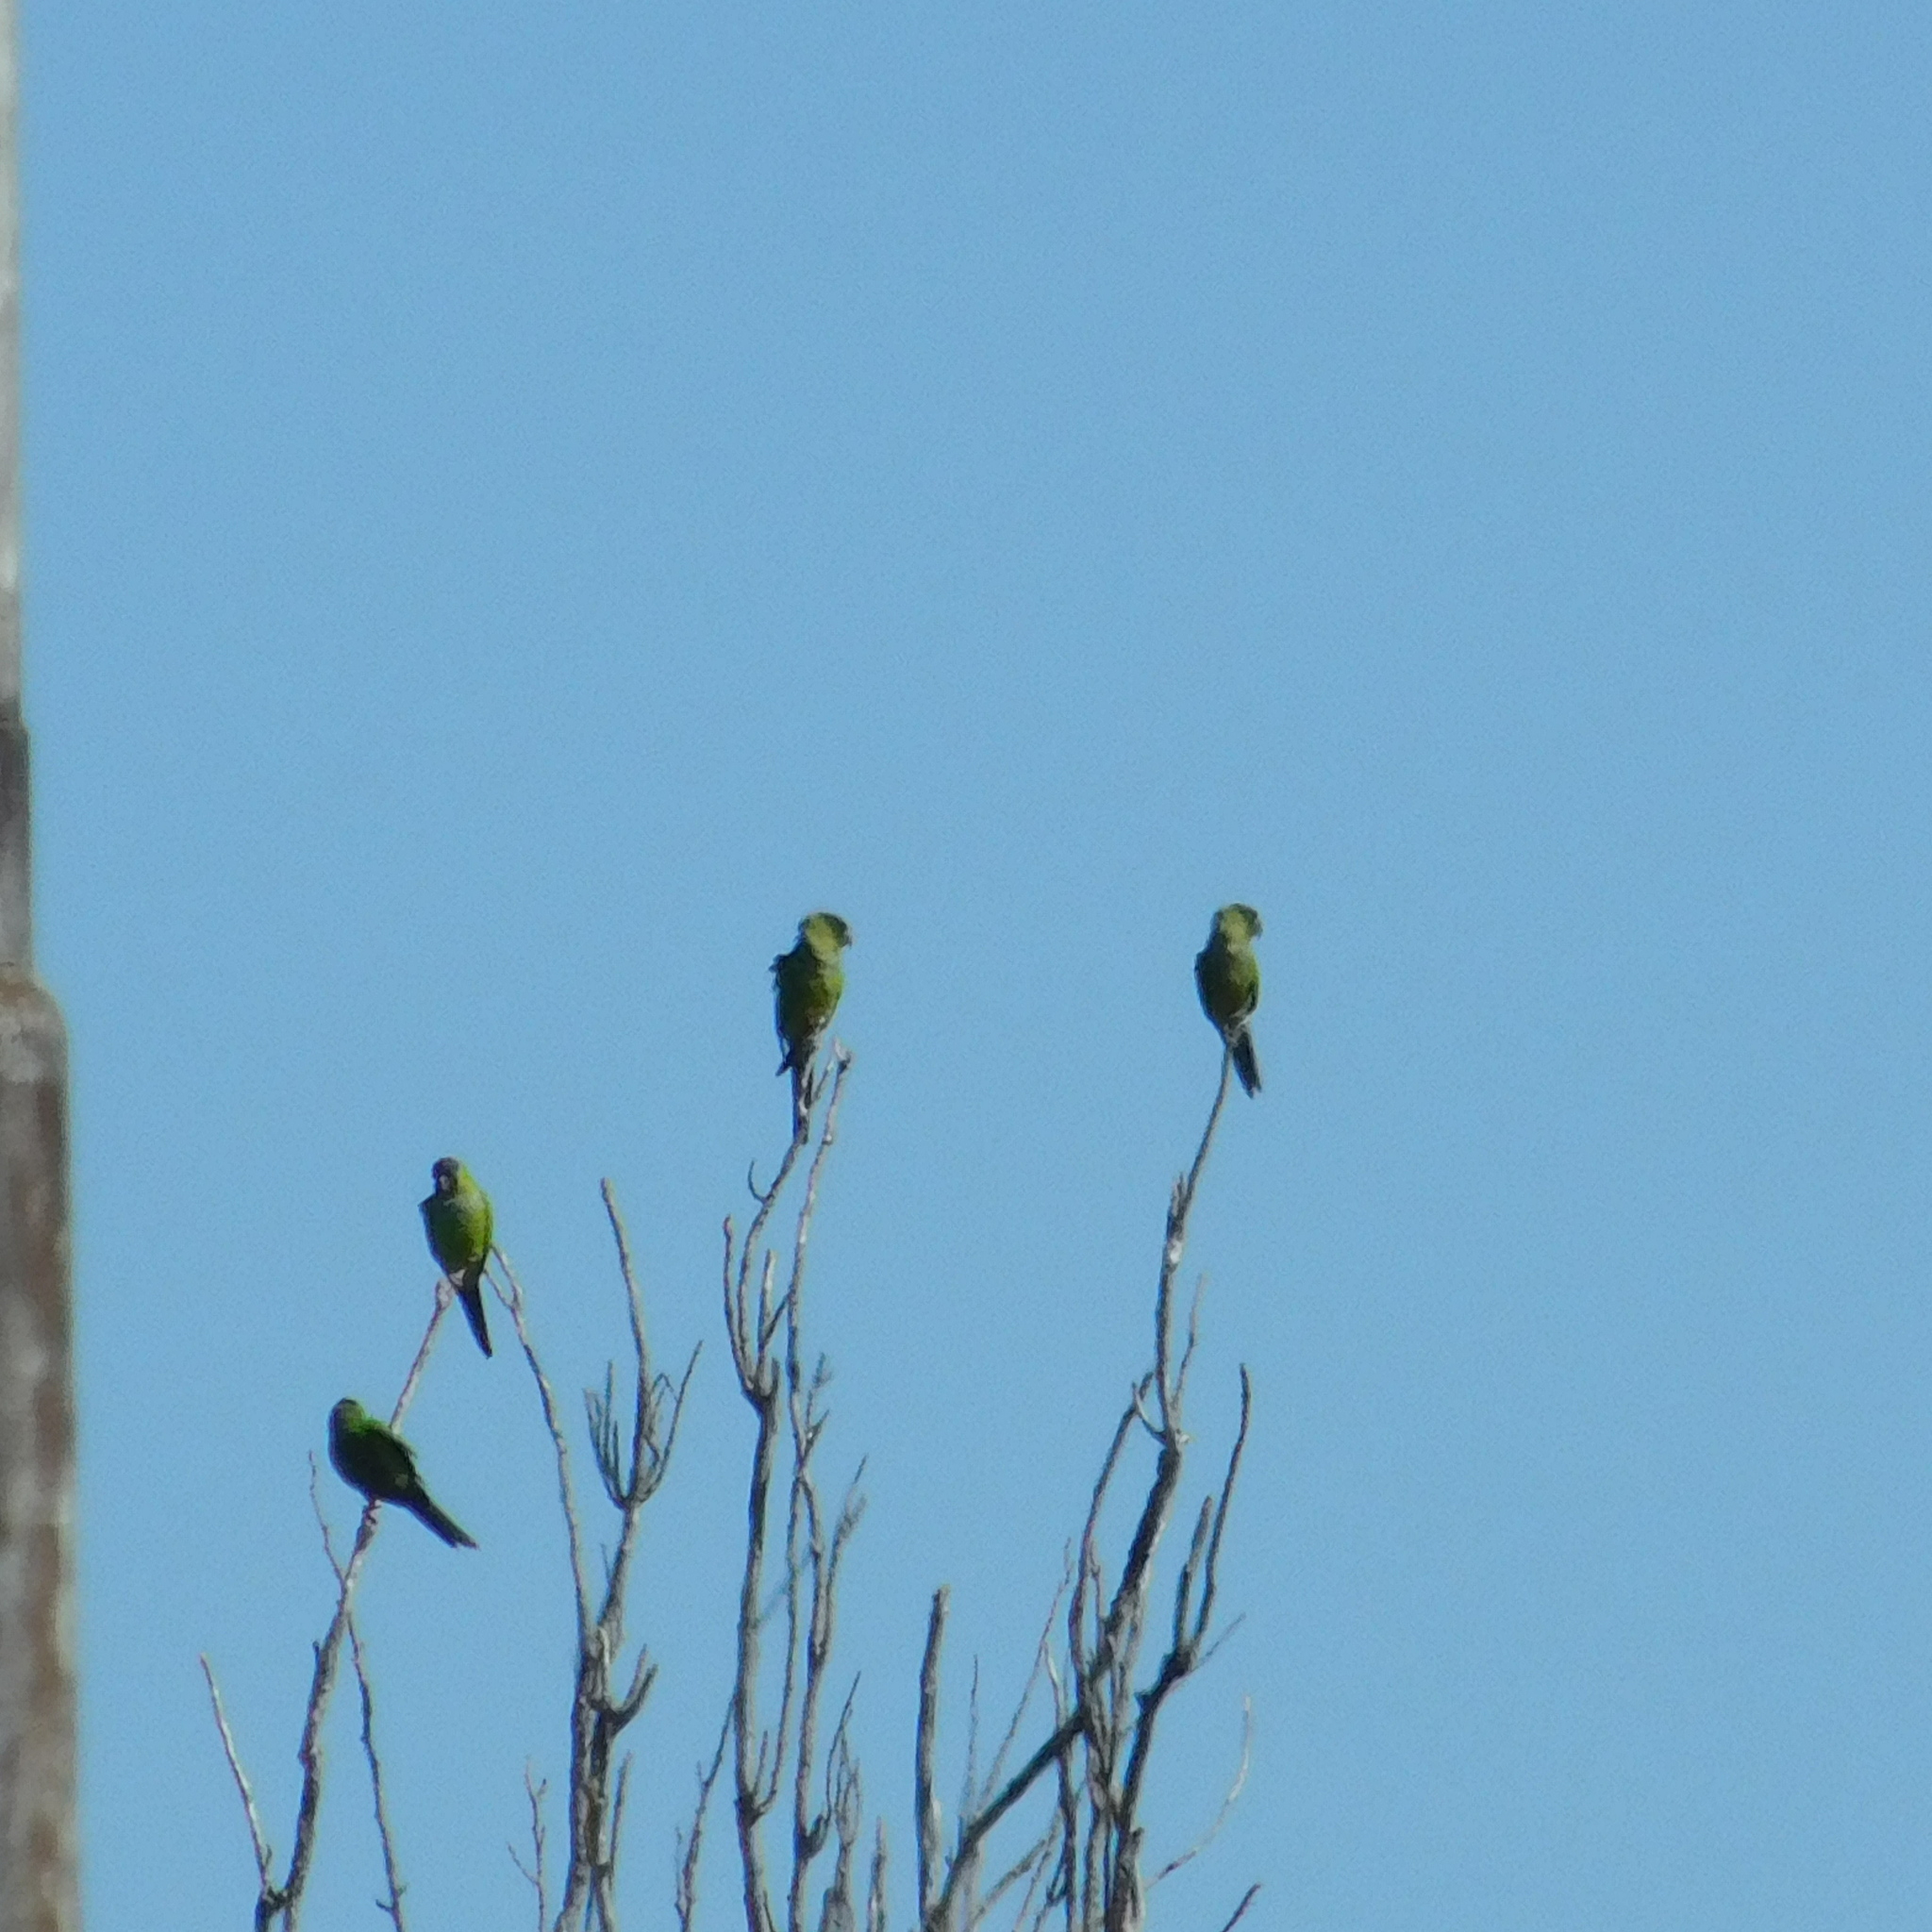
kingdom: Animalia
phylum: Chordata
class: Aves
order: Psittaciformes
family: Psittacidae
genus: Nandayus
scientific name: Nandayus nenday
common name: Nanday parakeet
